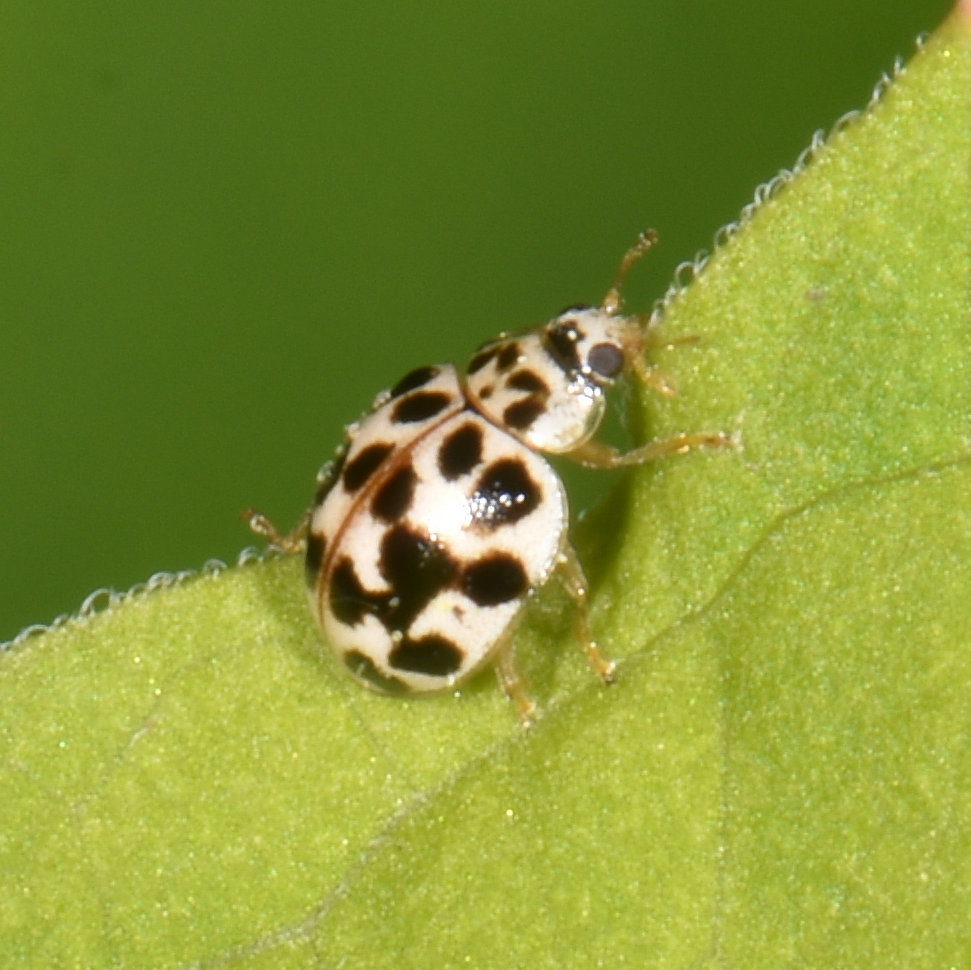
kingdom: Animalia
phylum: Arthropoda
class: Insecta
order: Coleoptera
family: Coccinellidae
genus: Psyllobora
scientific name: Psyllobora vigintimaculata
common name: Ladybird beetle
